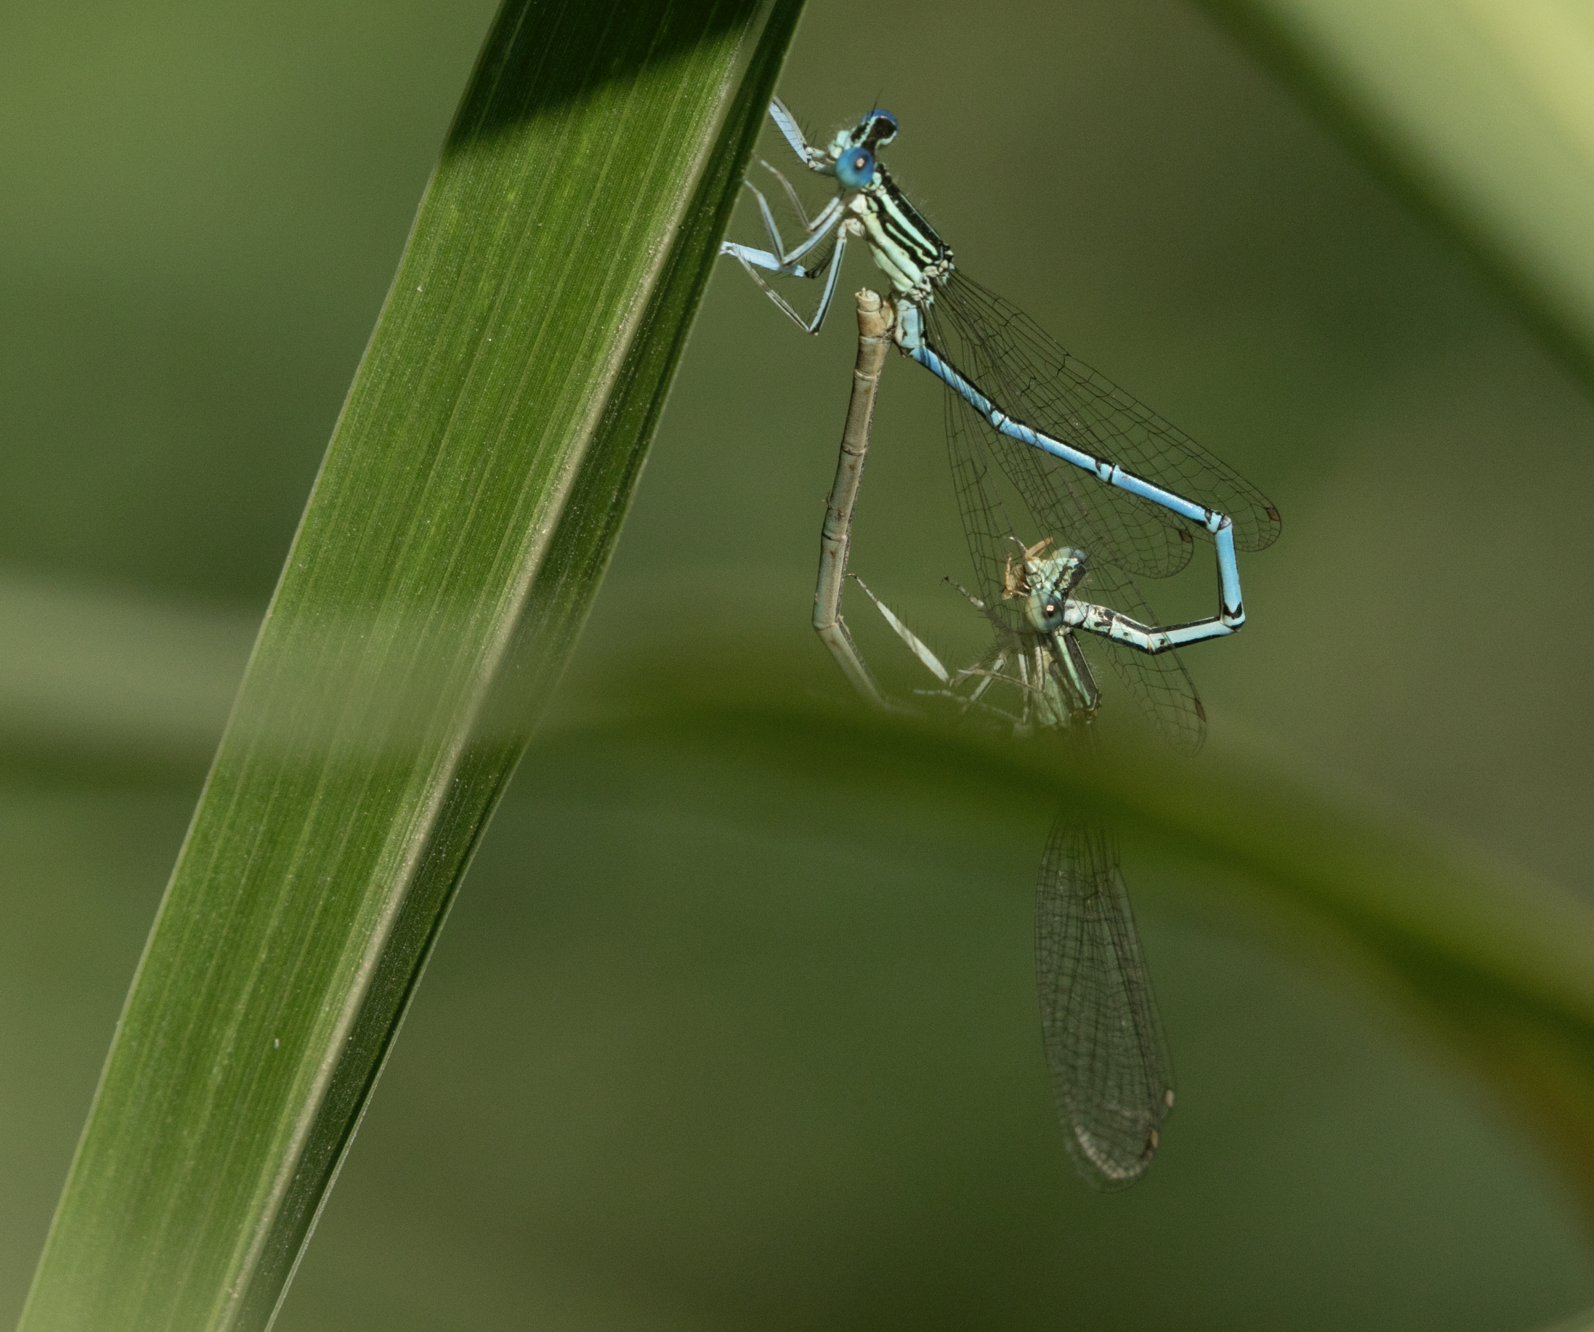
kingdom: Animalia
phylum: Arthropoda
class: Insecta
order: Odonata
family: Platycnemididae
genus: Platycnemis
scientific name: Platycnemis pennipes
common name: White-legged damselfly
